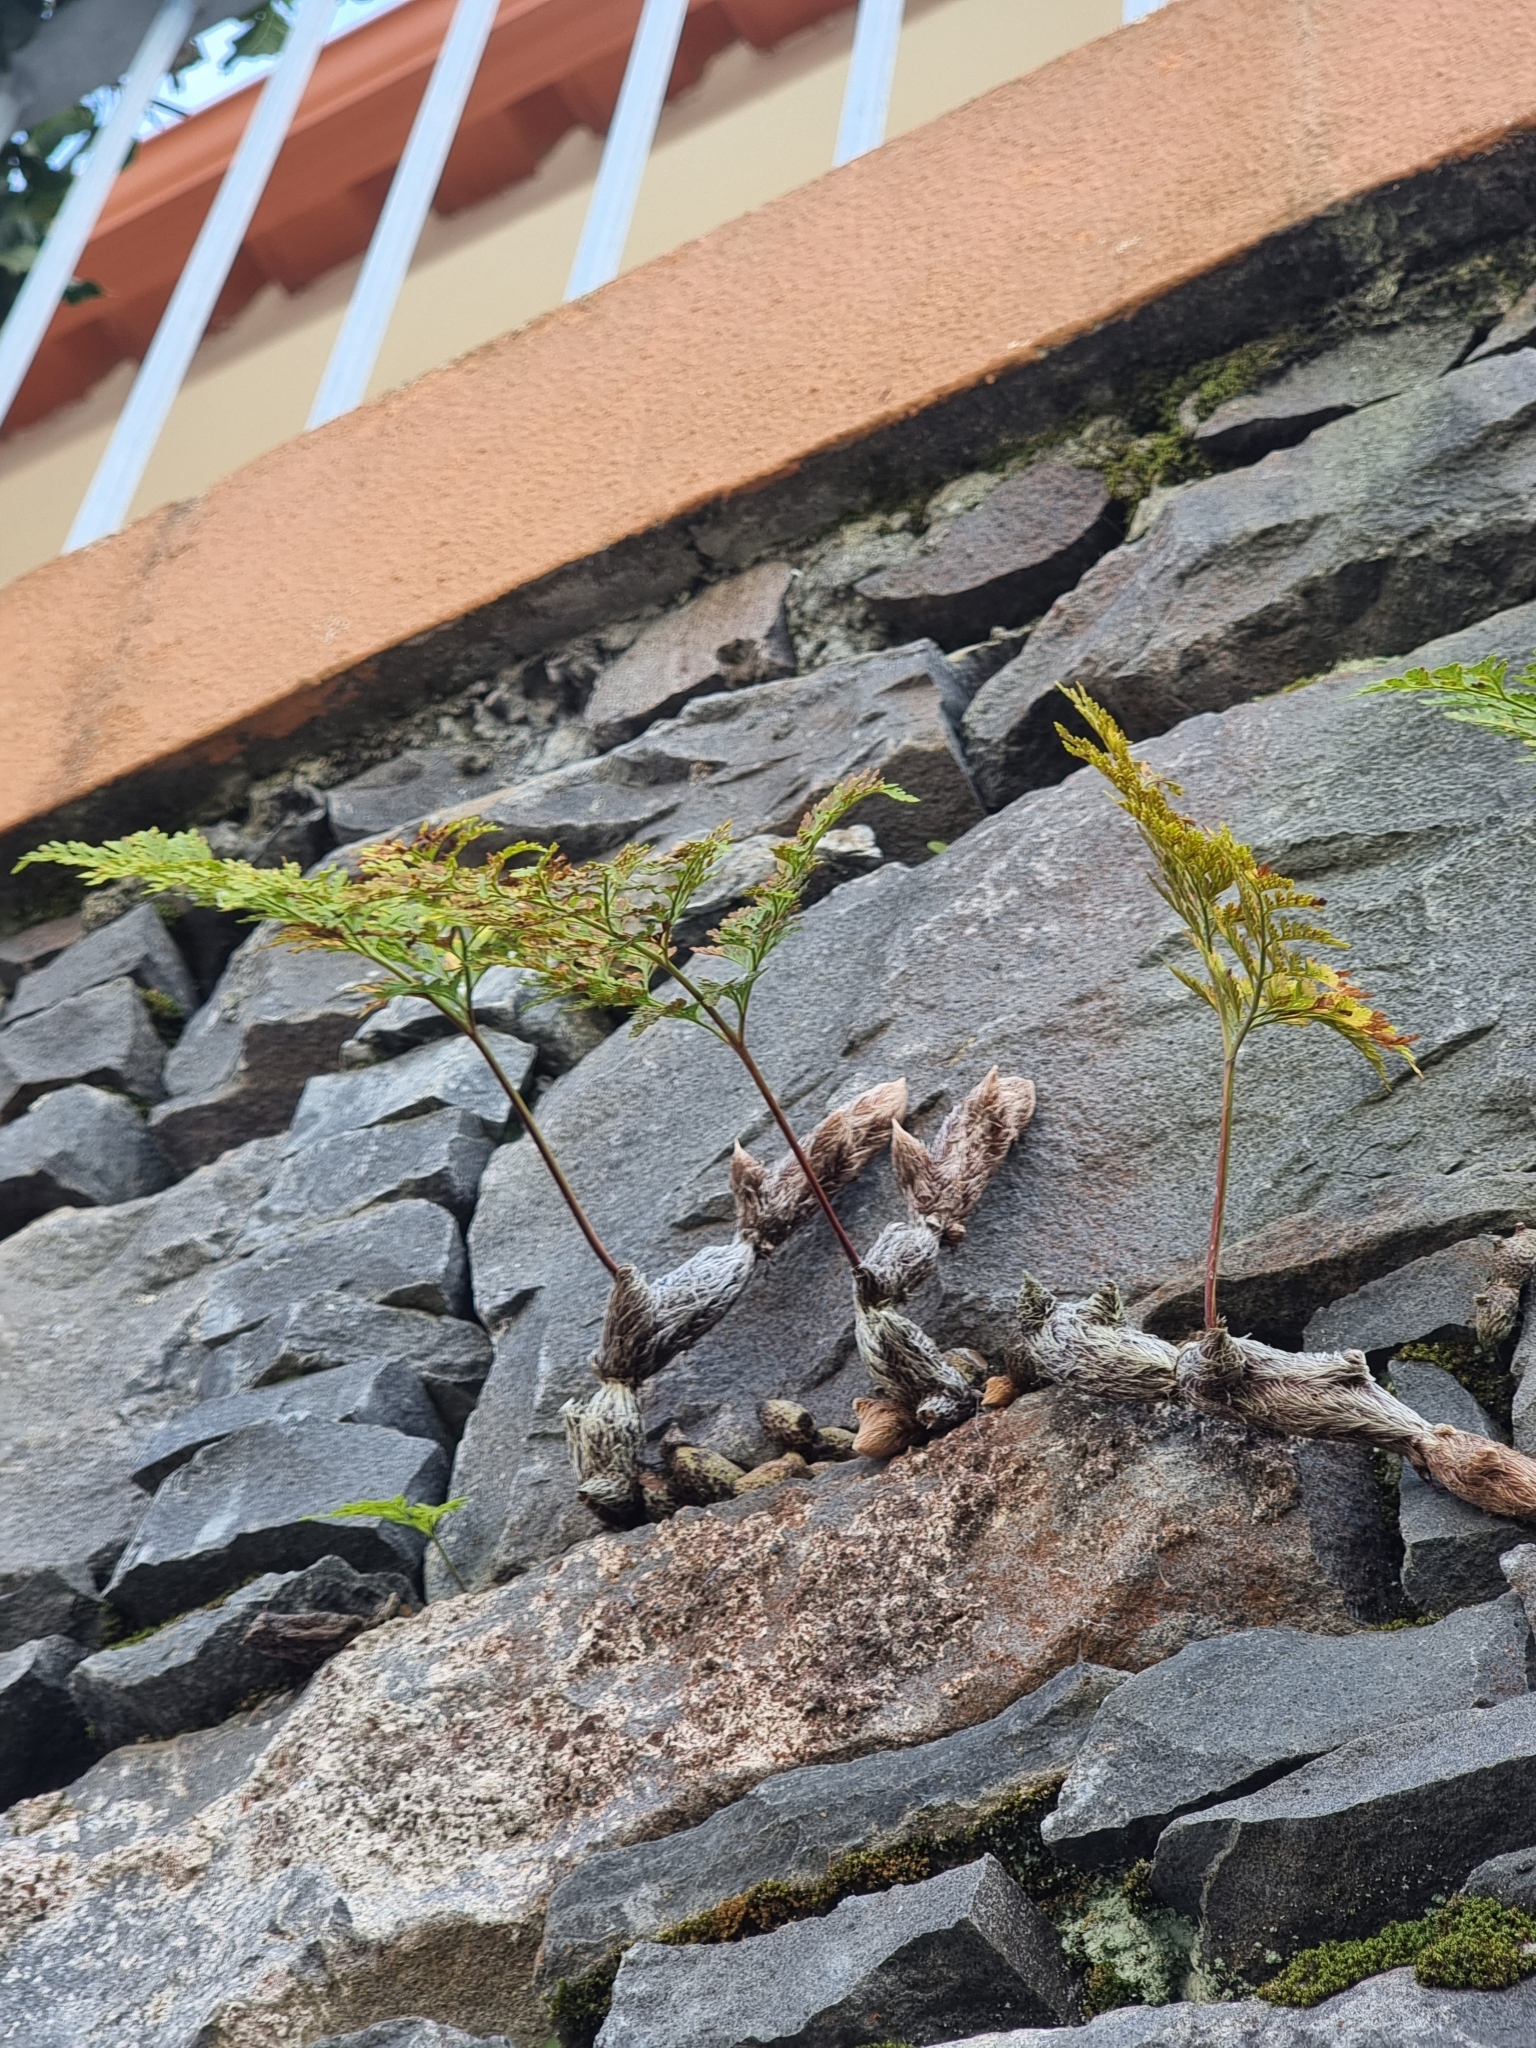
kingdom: Plantae
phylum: Tracheophyta
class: Polypodiopsida
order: Polypodiales
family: Davalliaceae
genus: Davallia
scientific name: Davallia canariensis
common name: Hare's-foot fern
